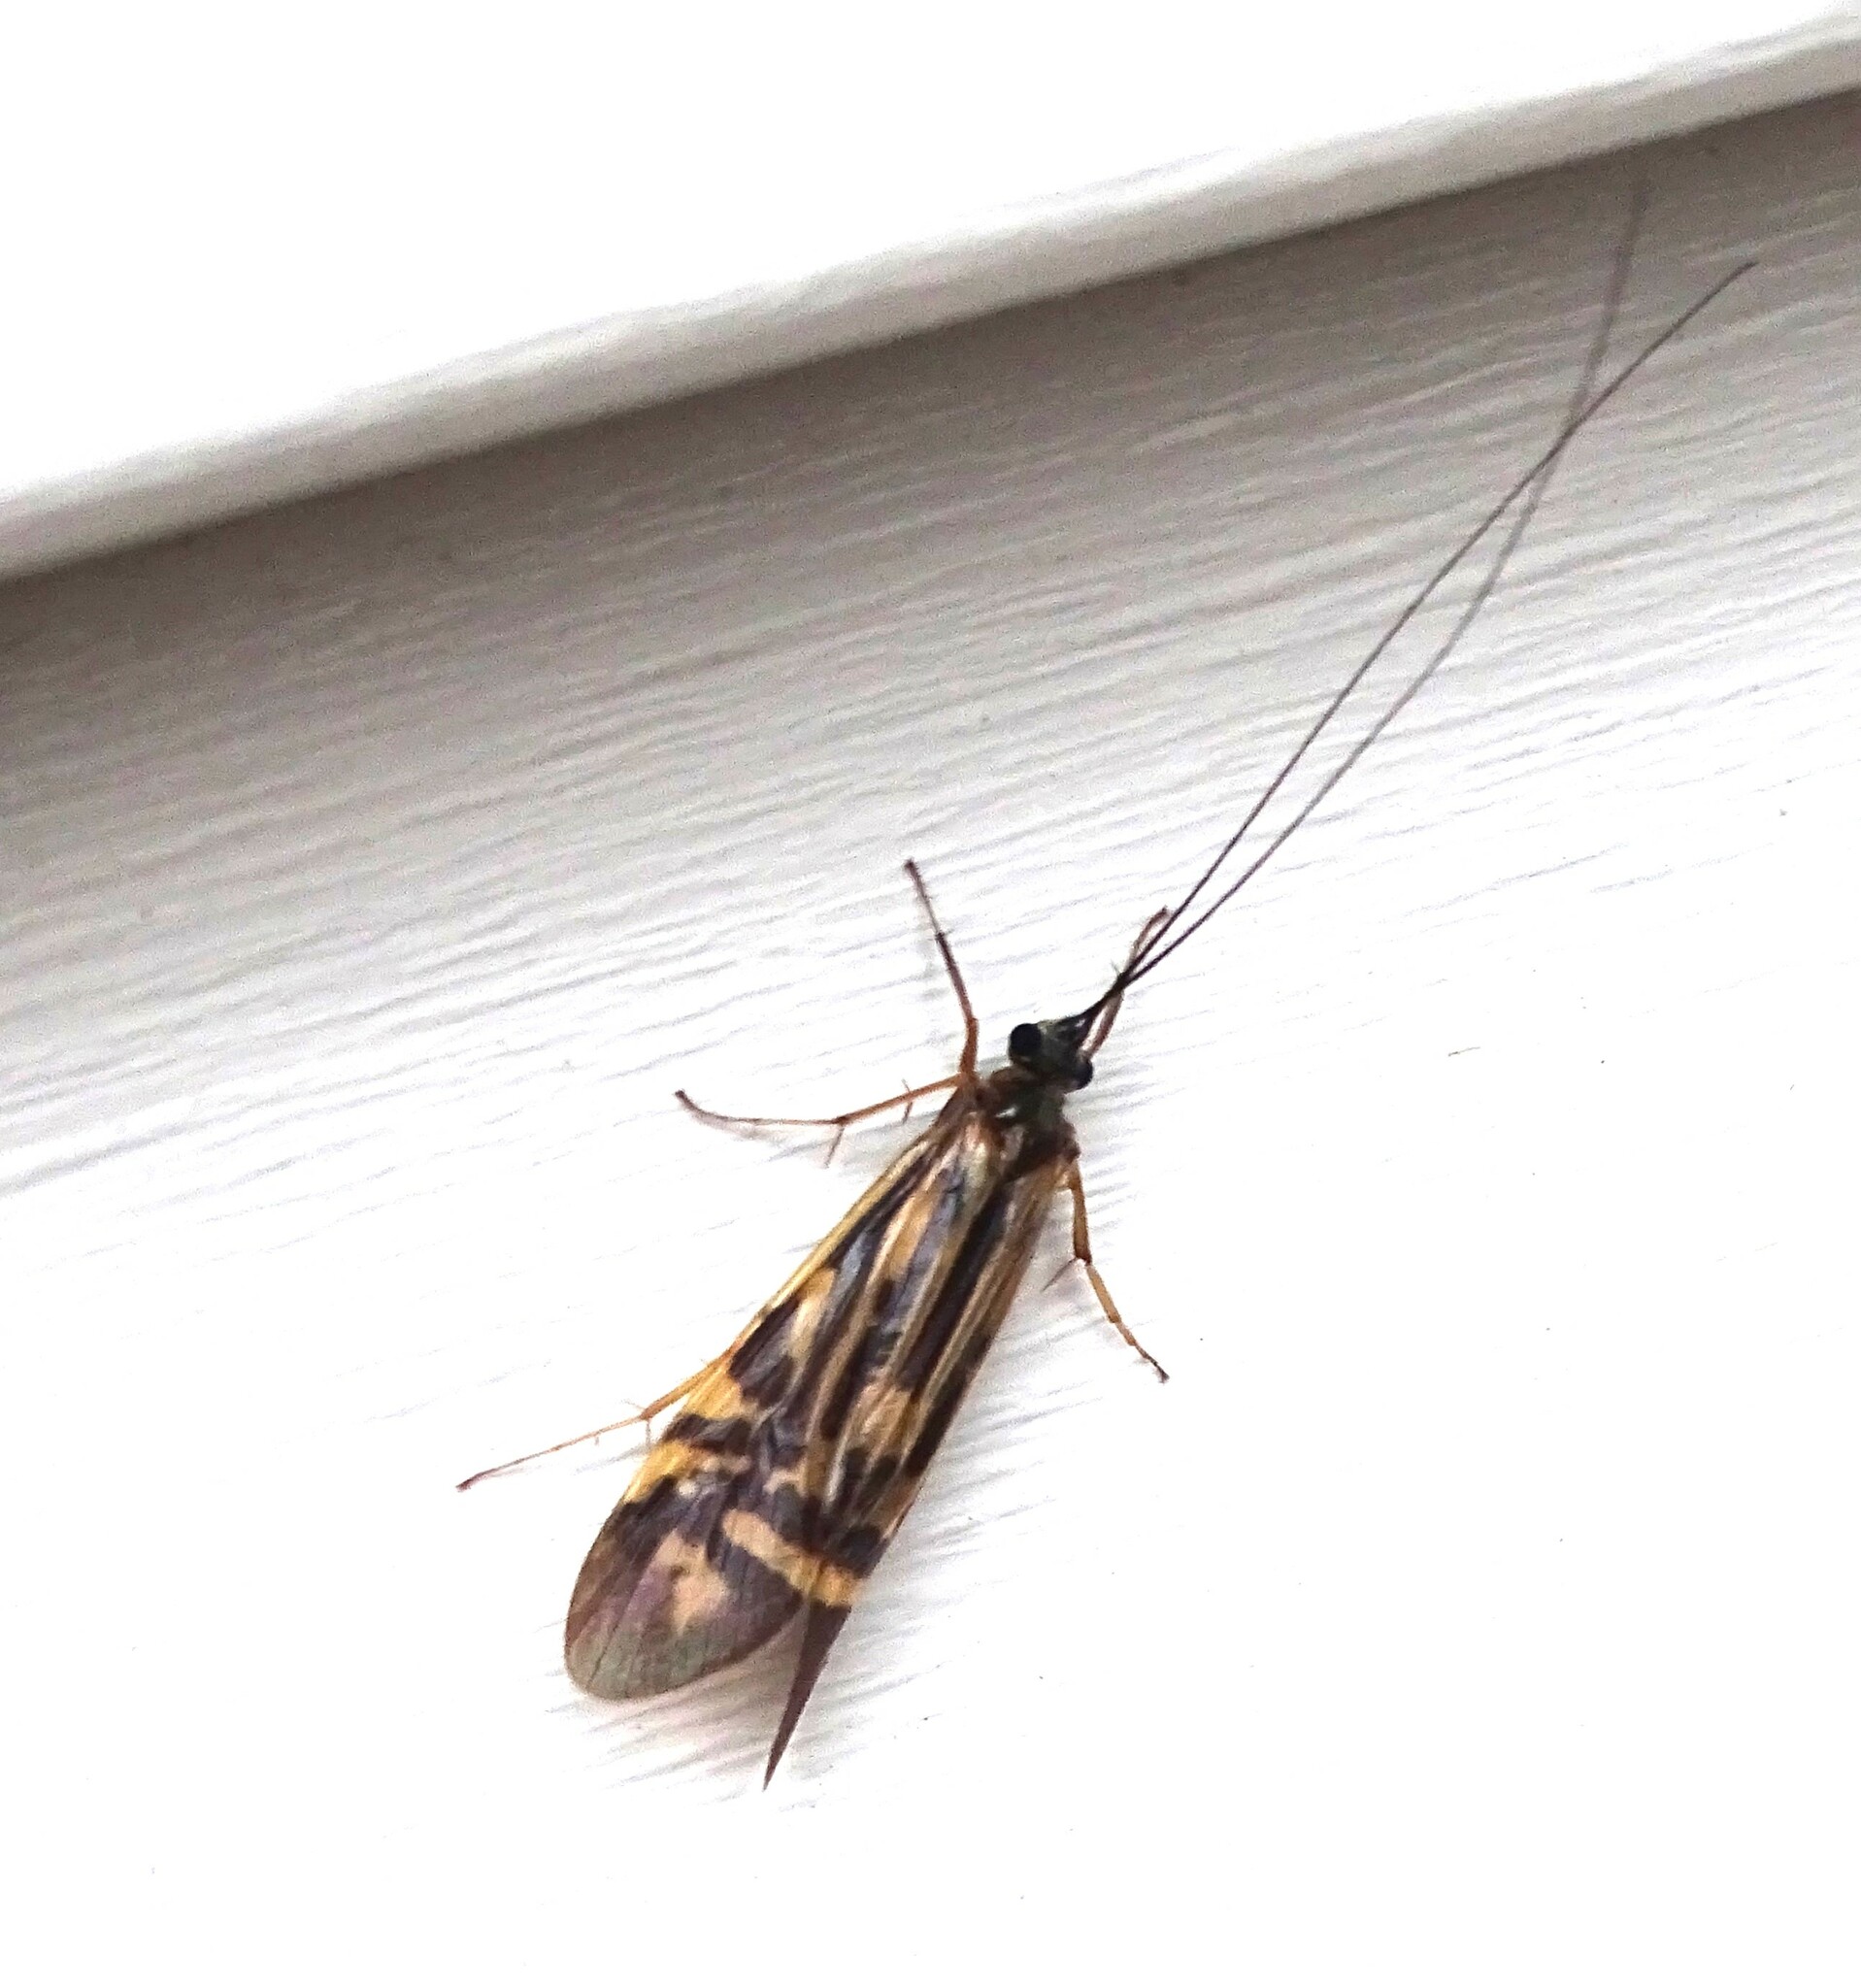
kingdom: Animalia
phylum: Arthropoda
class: Insecta
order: Trichoptera
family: Hydropsychidae
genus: Macrostemum
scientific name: Macrostemum zebratum
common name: Zebra caddisfly
